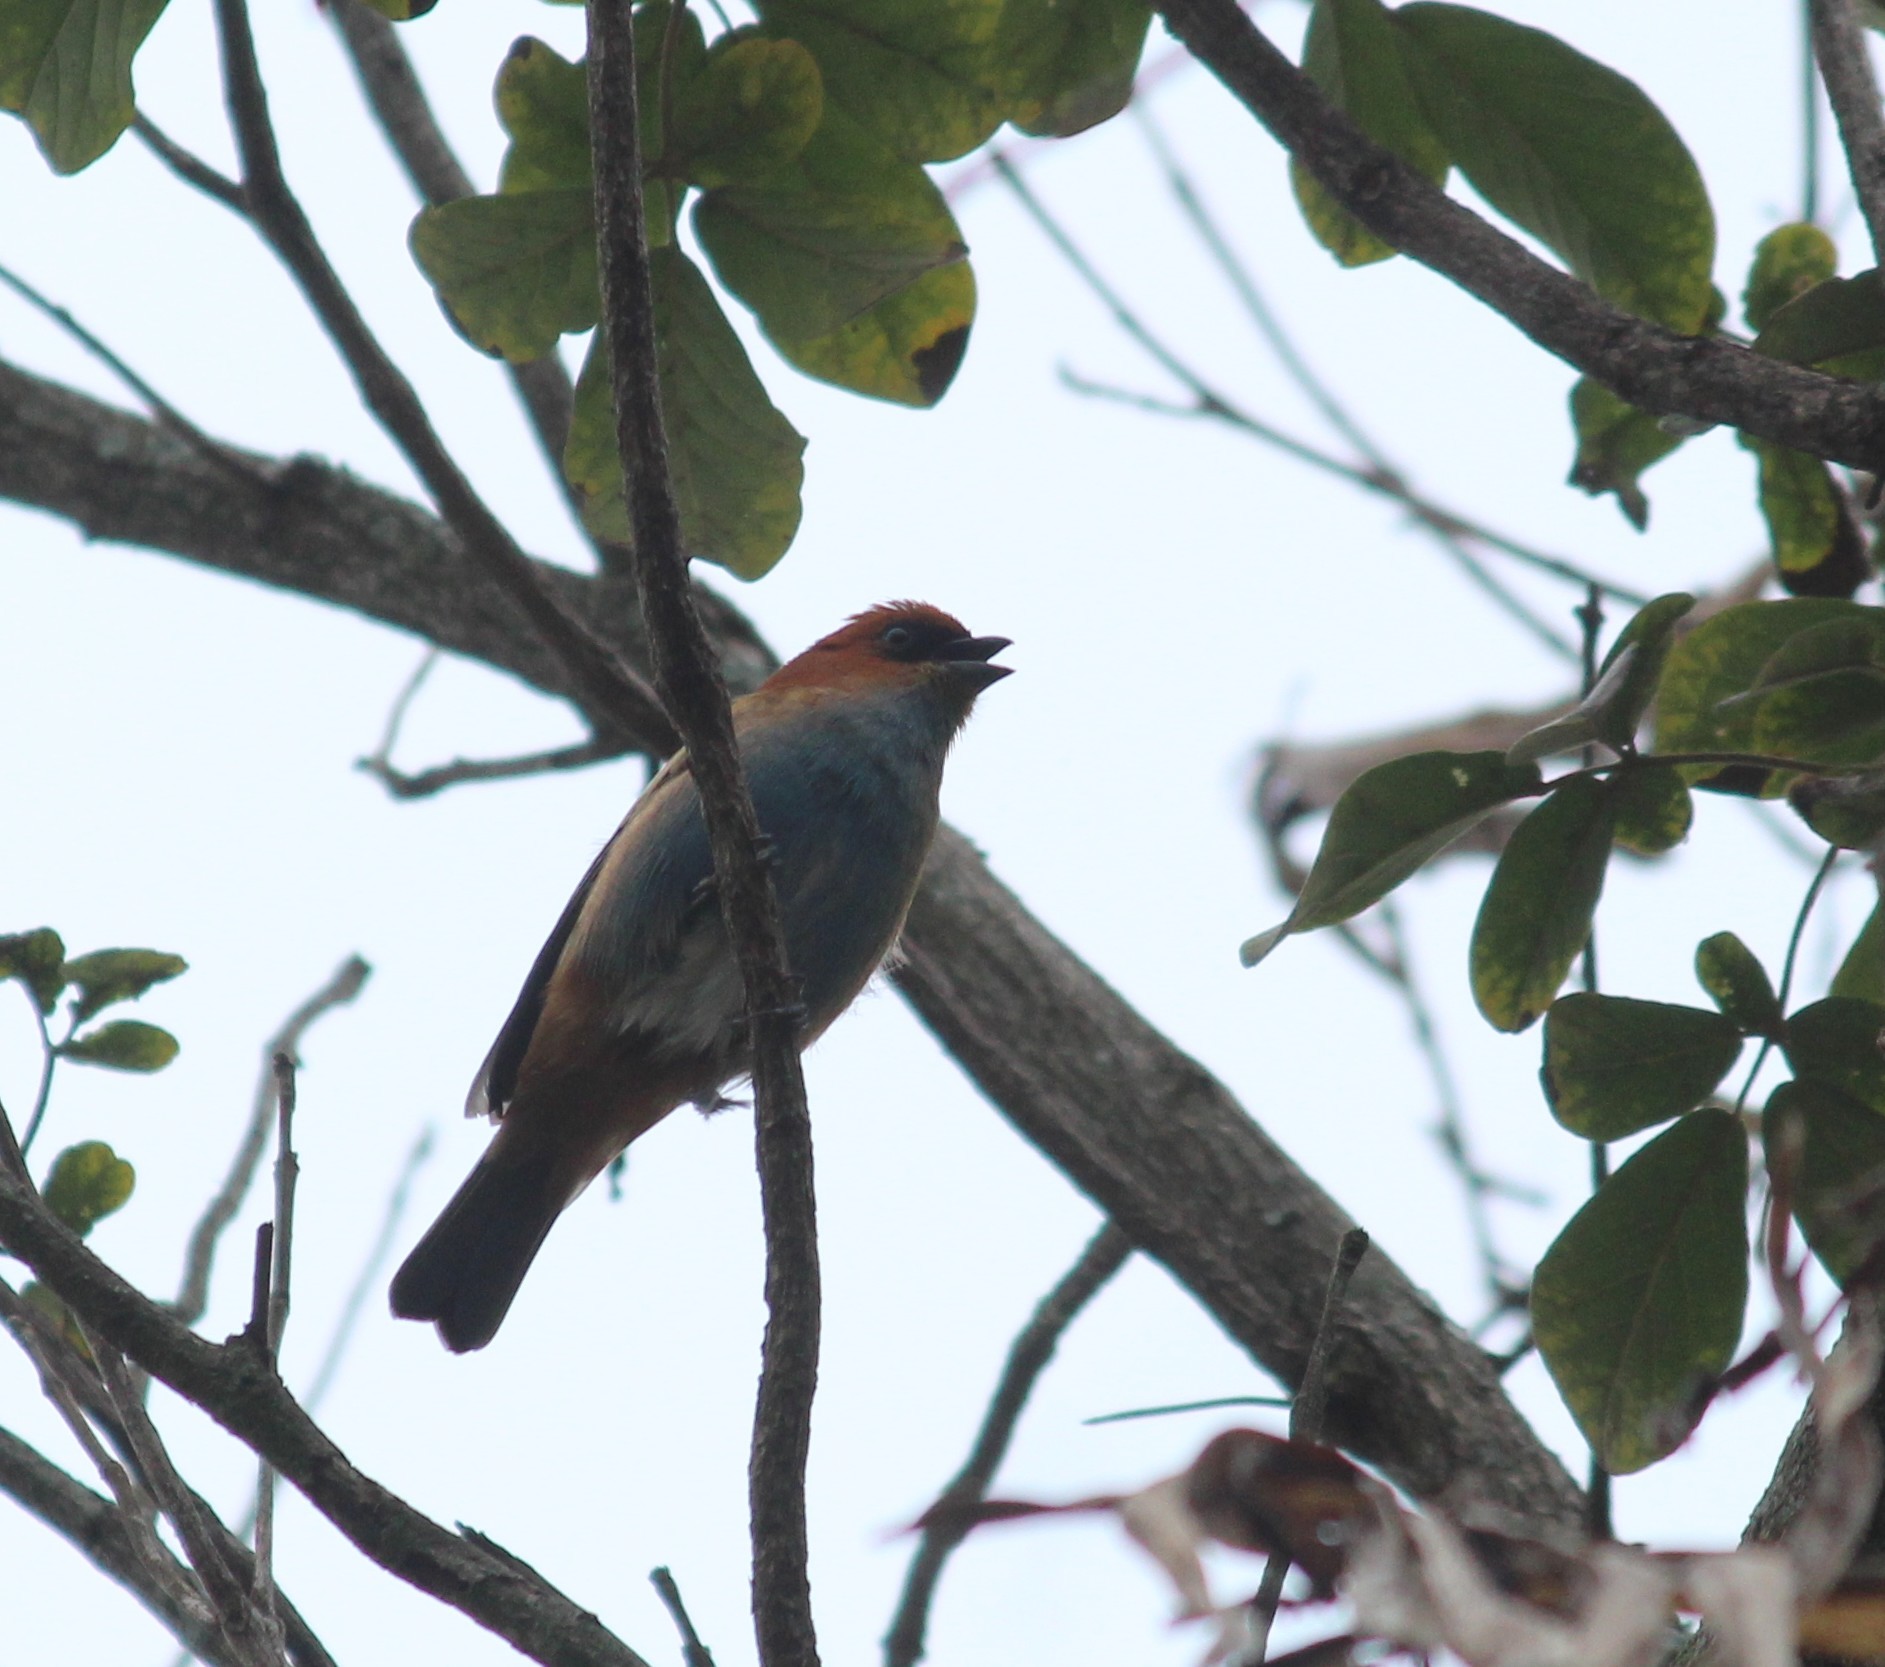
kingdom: Animalia
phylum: Chordata
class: Aves
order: Passeriformes
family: Thraupidae
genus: Stilpnia
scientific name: Stilpnia preciosa
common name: Chestnut-backed tanager
